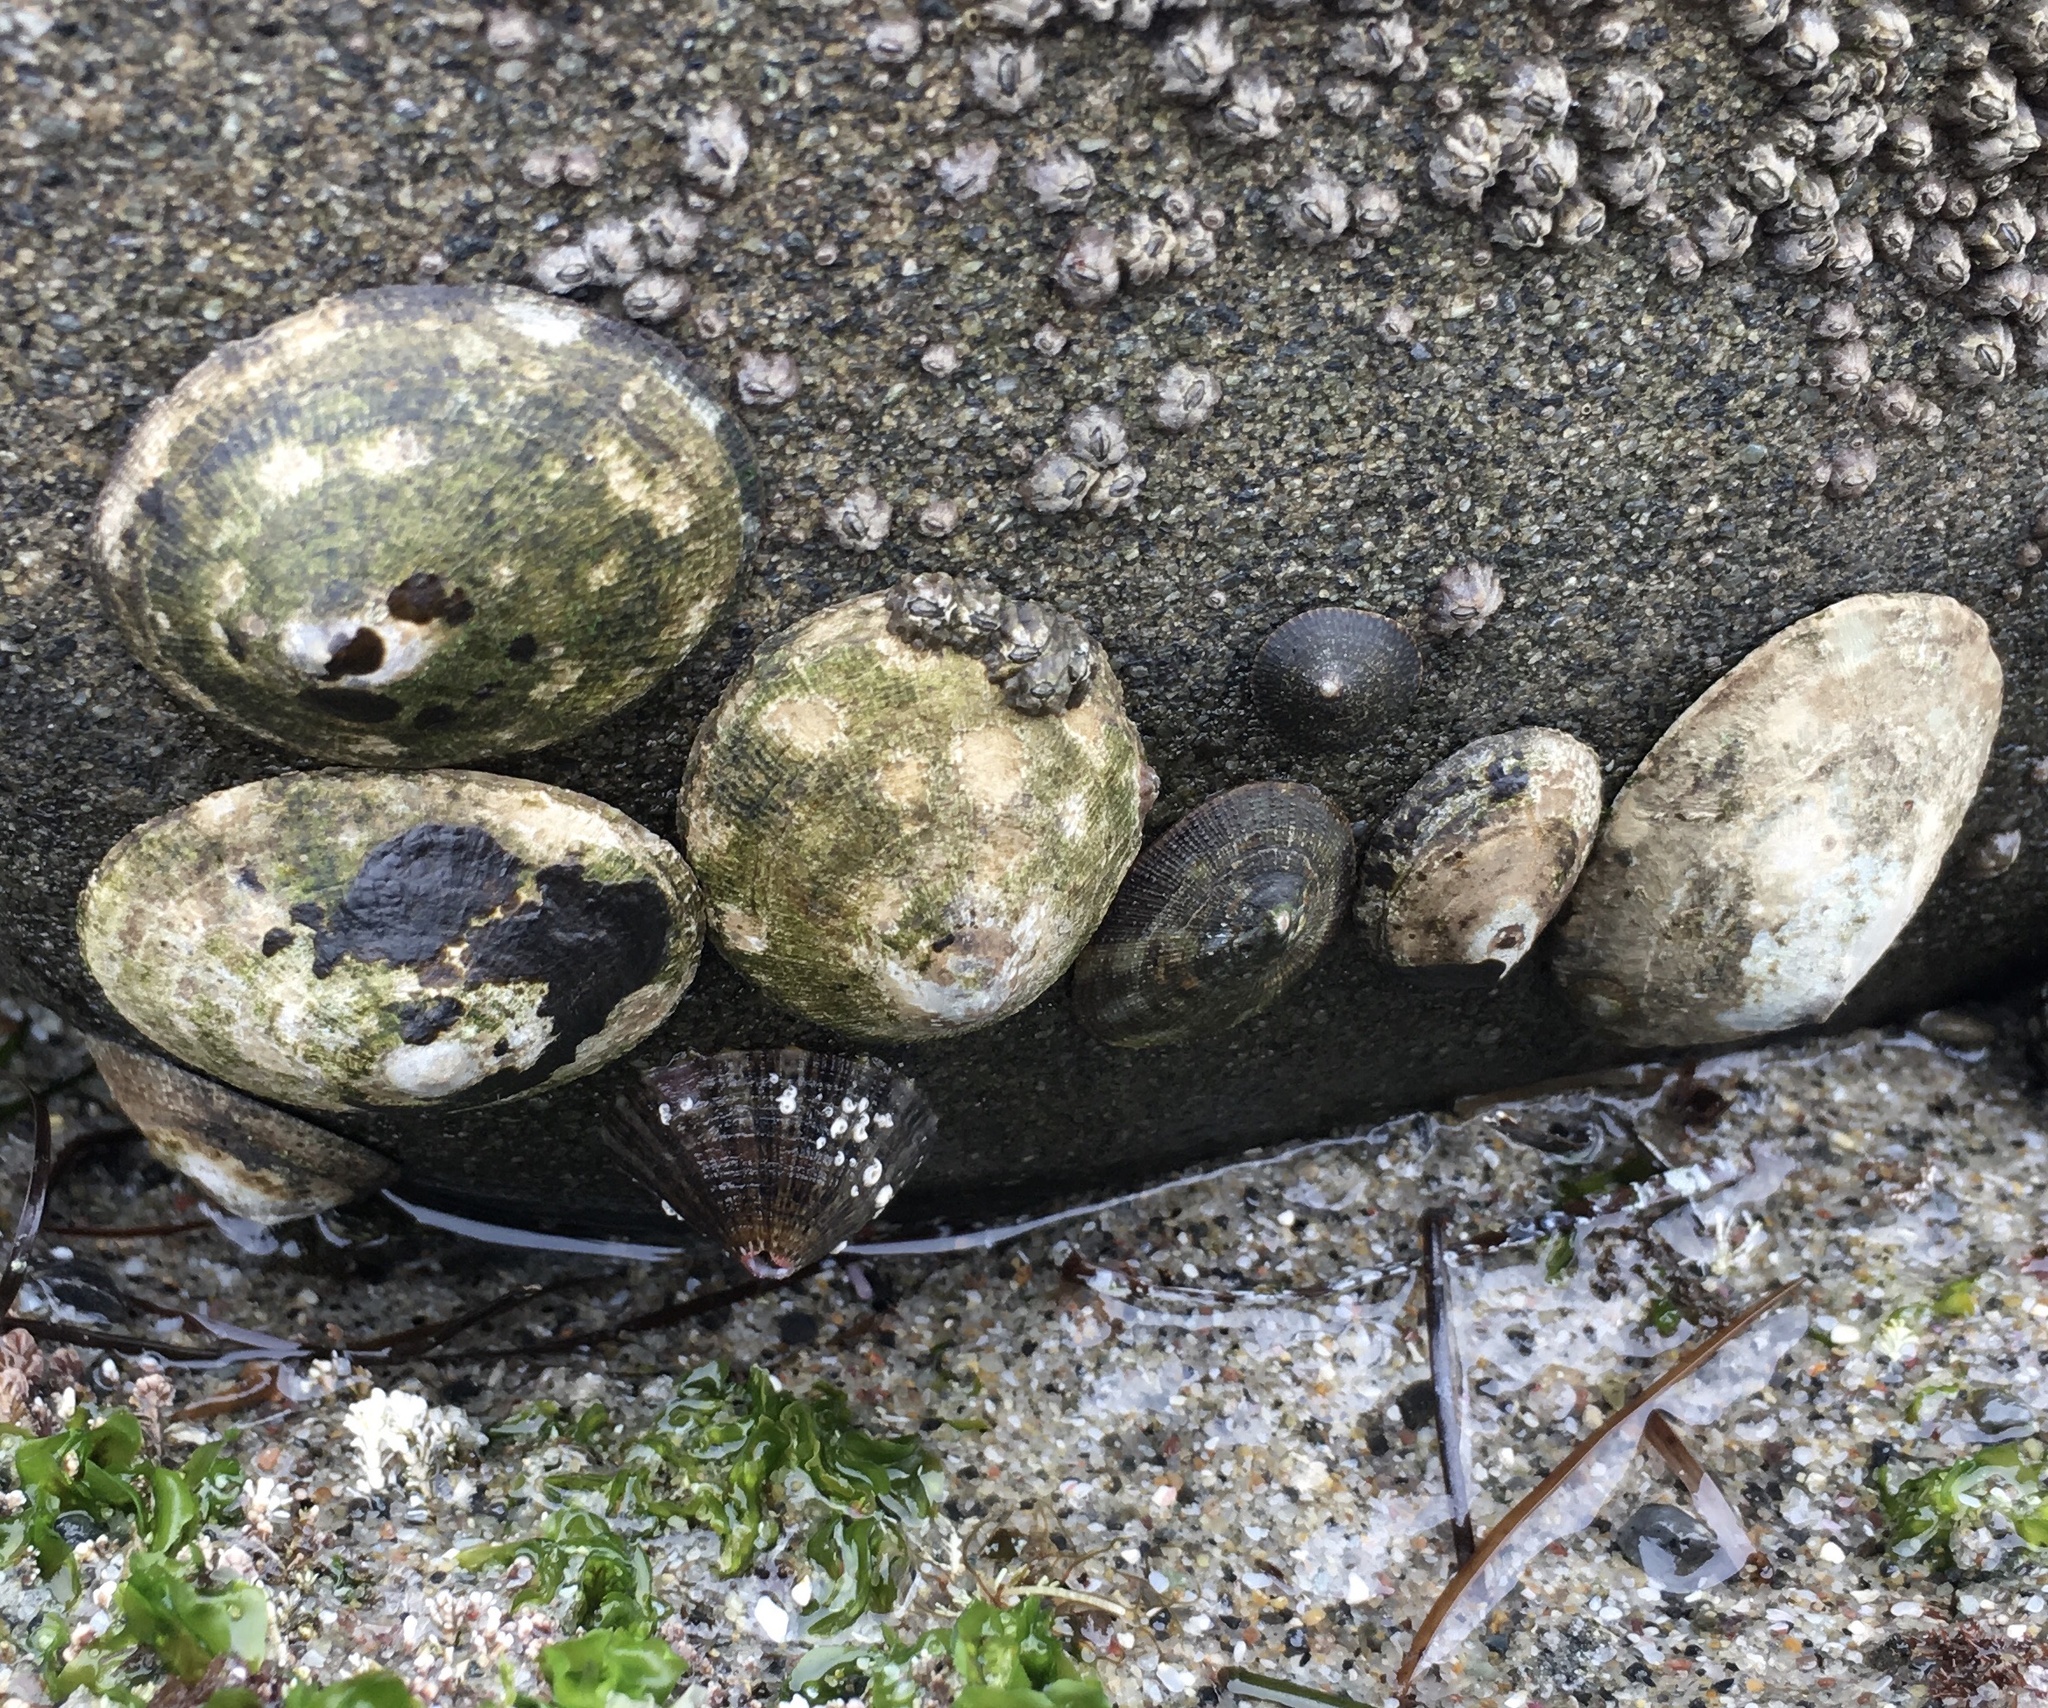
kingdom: Animalia
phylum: Mollusca
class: Gastropoda
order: Lepetellida
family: Fissurellidae
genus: Fissurella
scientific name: Fissurella volcano
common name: Volcano keyhole limpet
